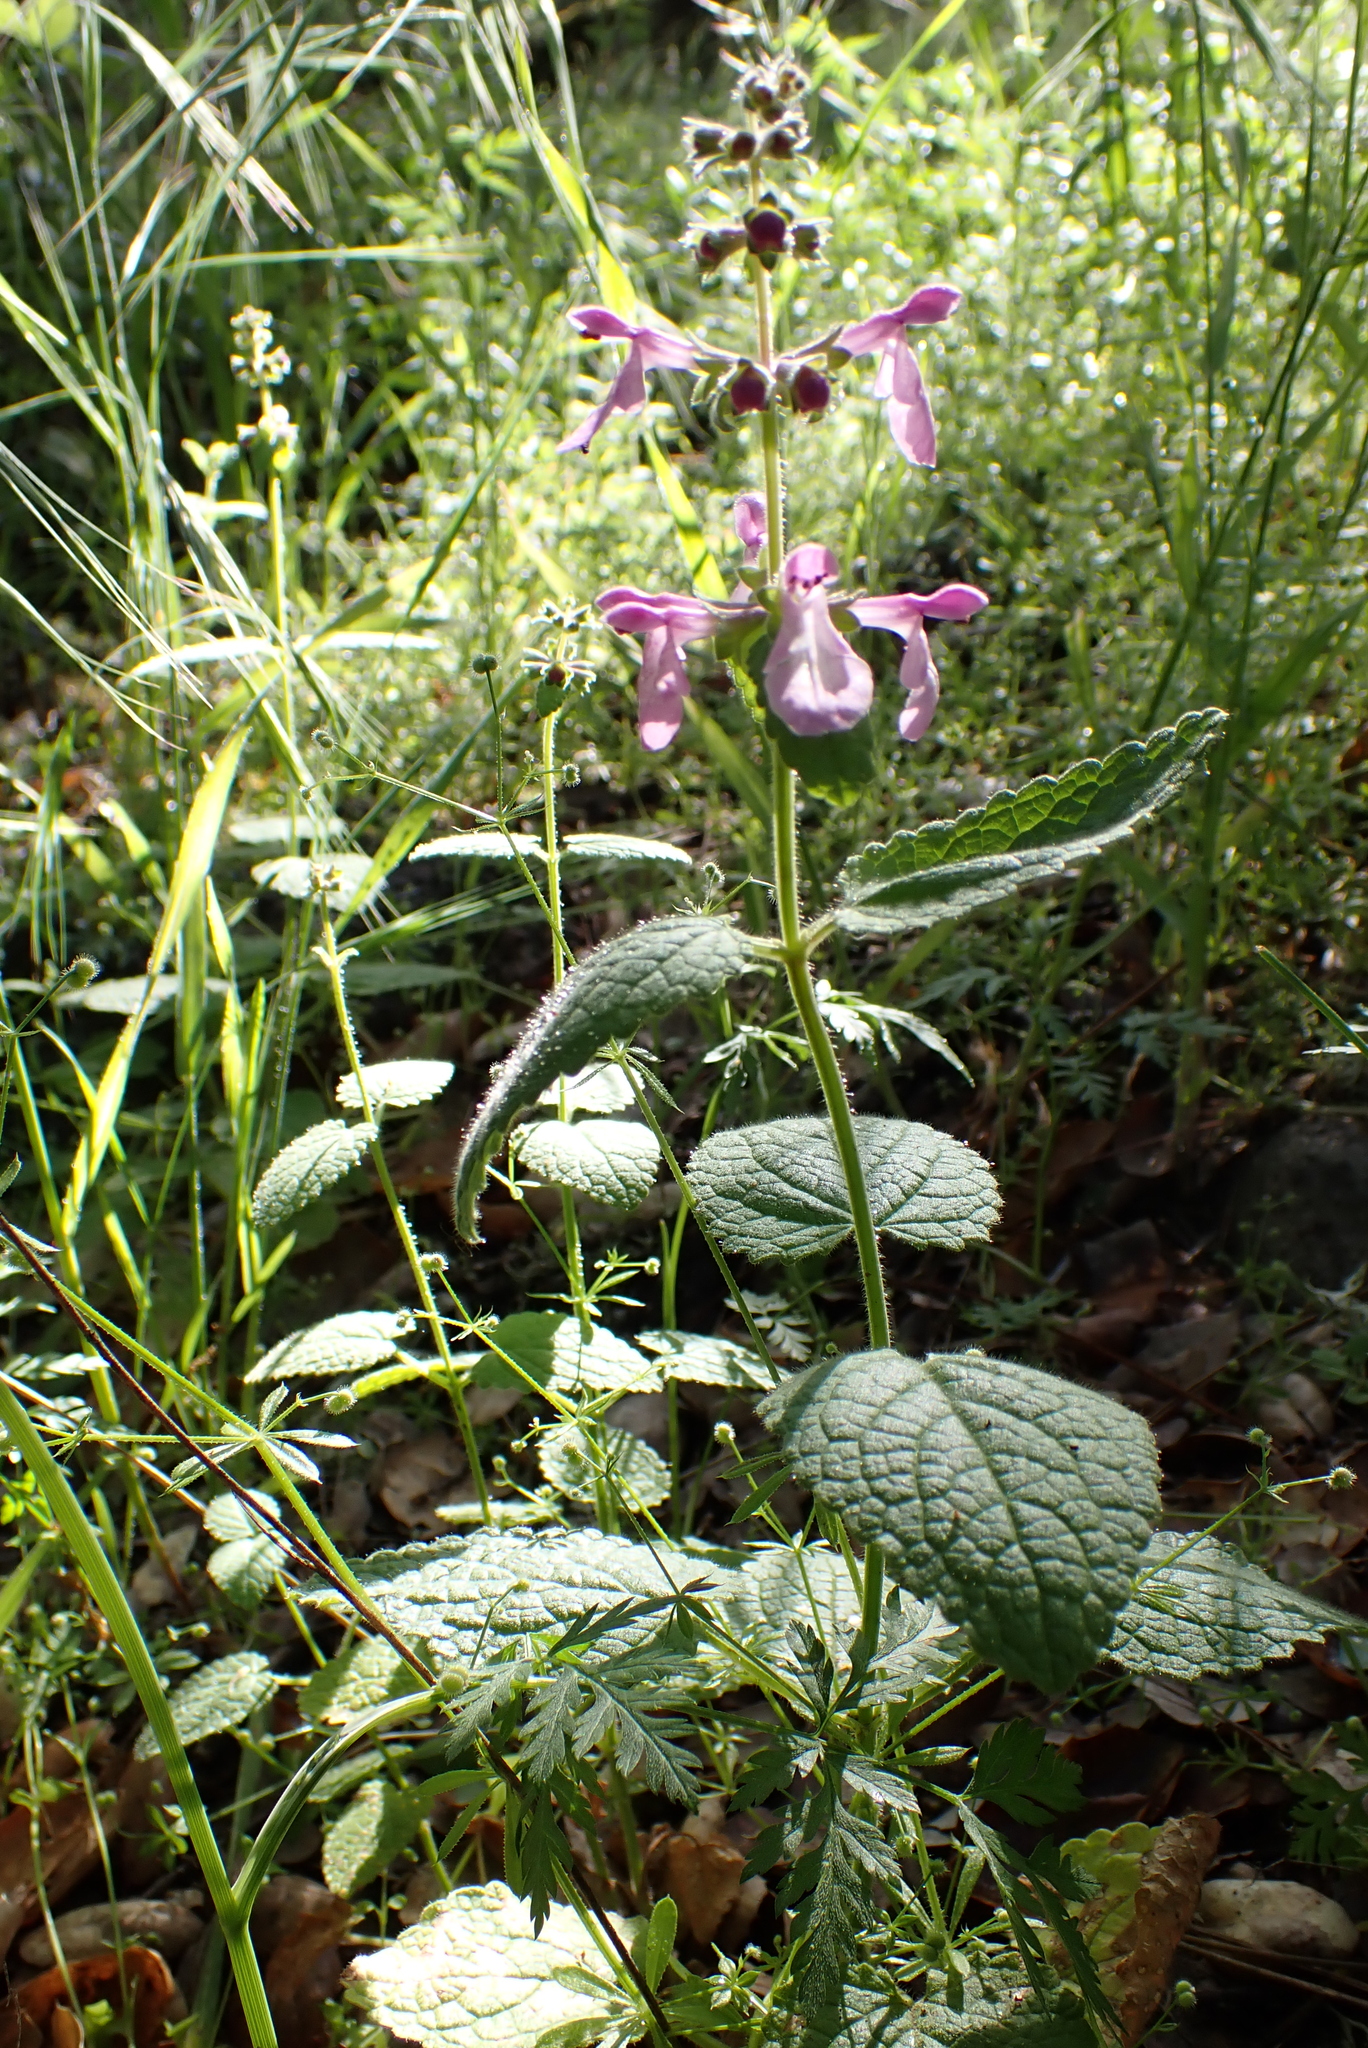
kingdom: Plantae
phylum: Tracheophyta
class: Magnoliopsida
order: Lamiales
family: Lamiaceae
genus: Stachys
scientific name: Stachys bullata
